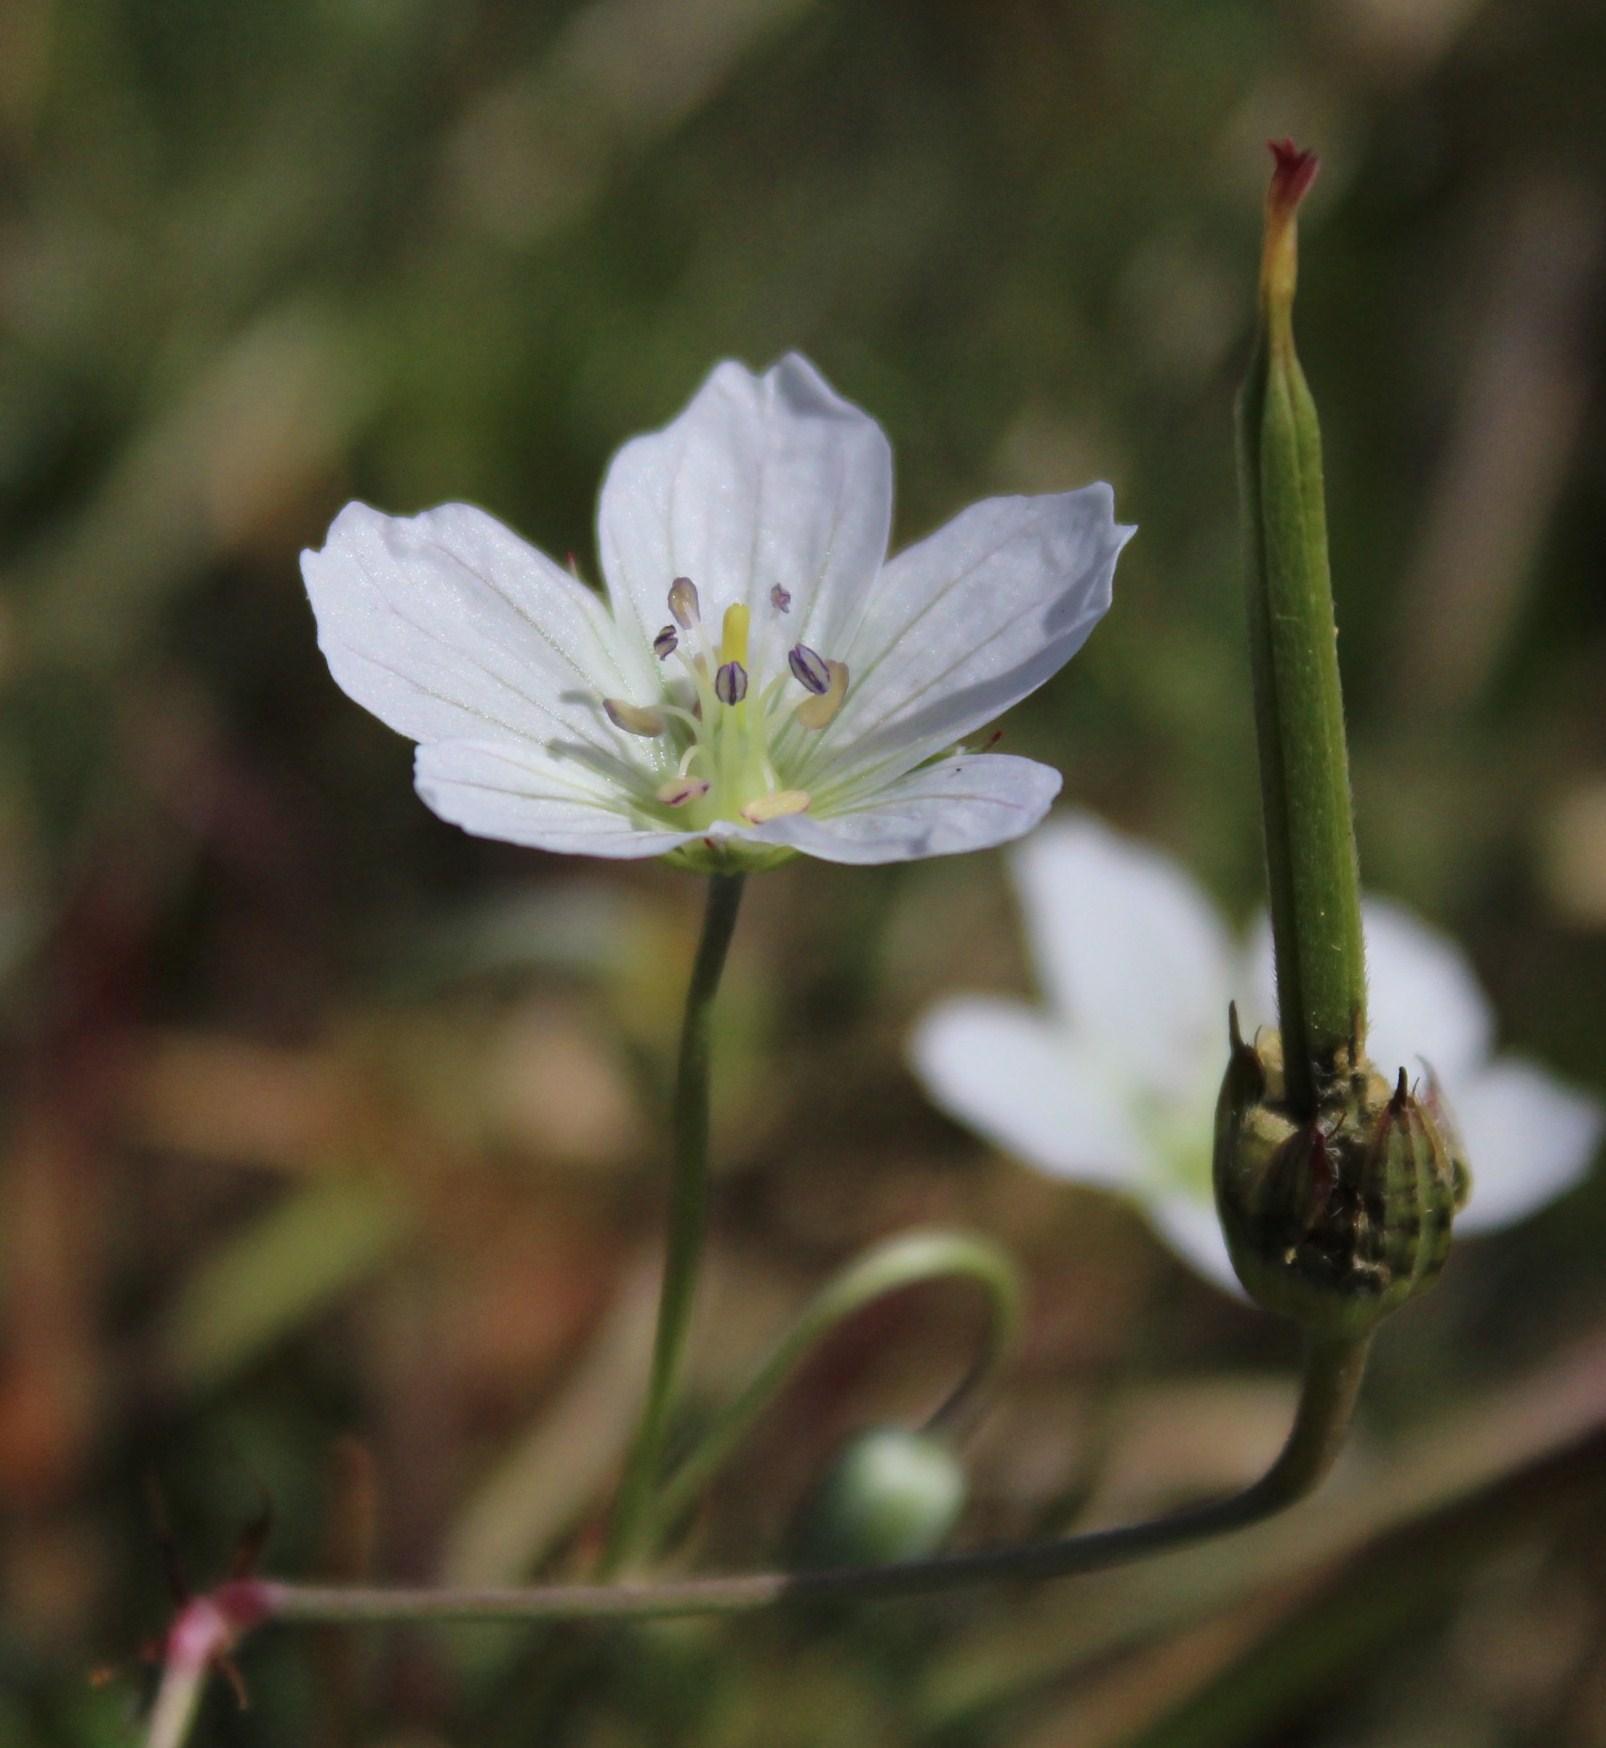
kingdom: Plantae
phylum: Tracheophyta
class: Magnoliopsida
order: Geraniales
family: Geraniaceae
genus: Geranium
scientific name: Geranium incanum
